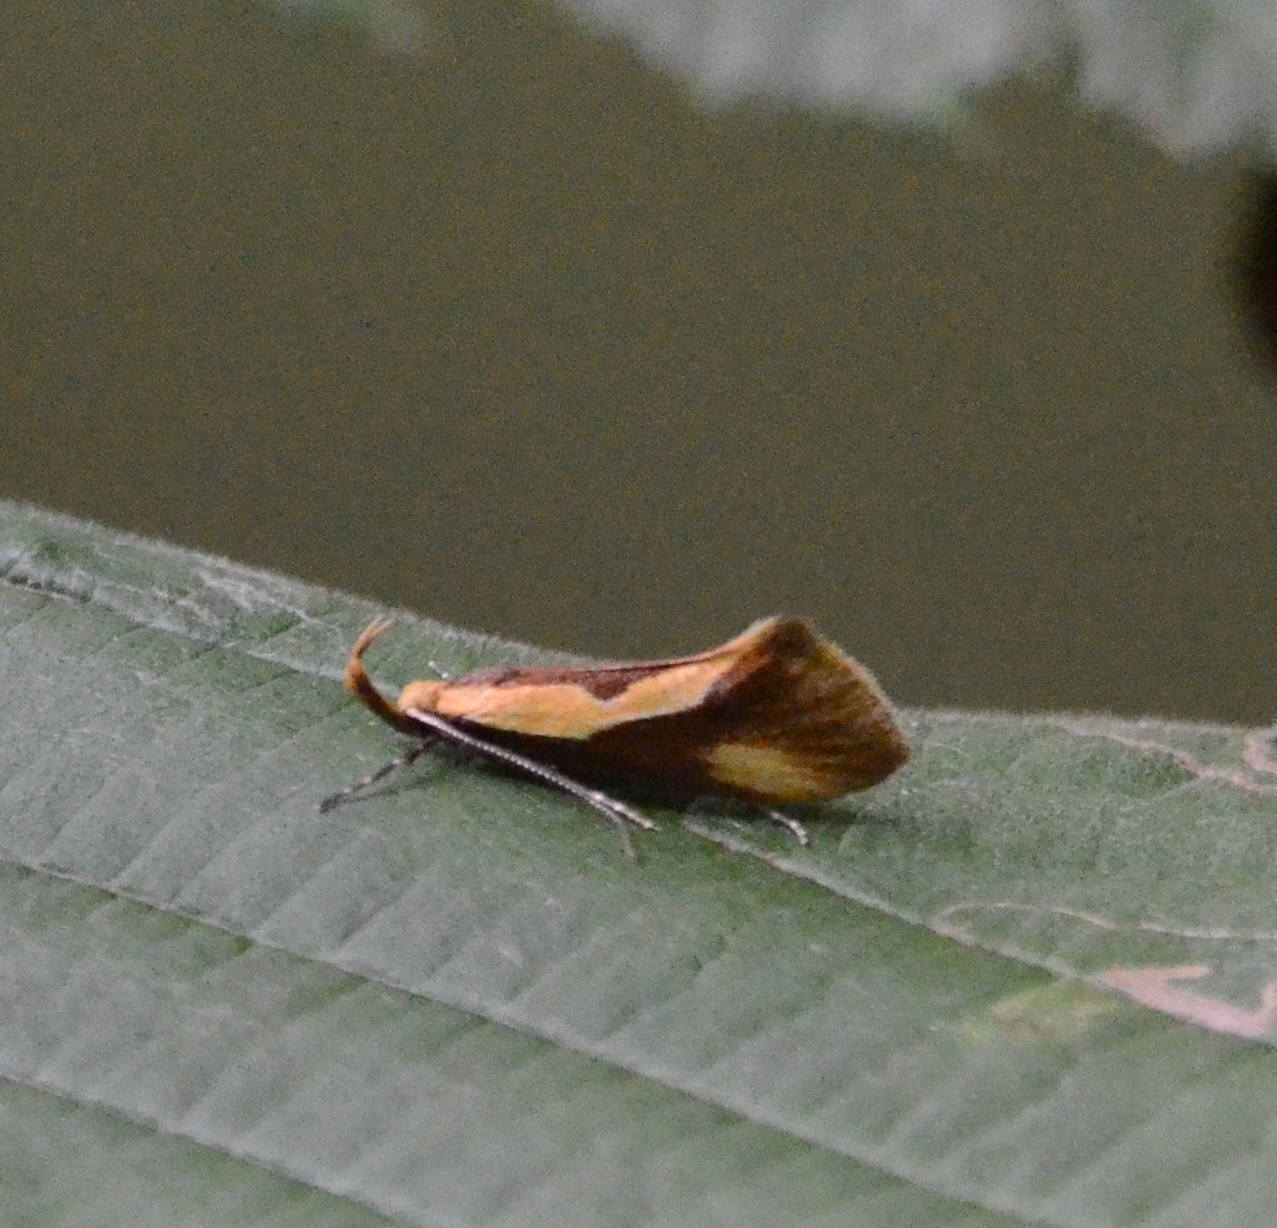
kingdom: Animalia
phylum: Arthropoda
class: Insecta
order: Lepidoptera
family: Oecophoridae
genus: Harpella
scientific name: Harpella forficella
